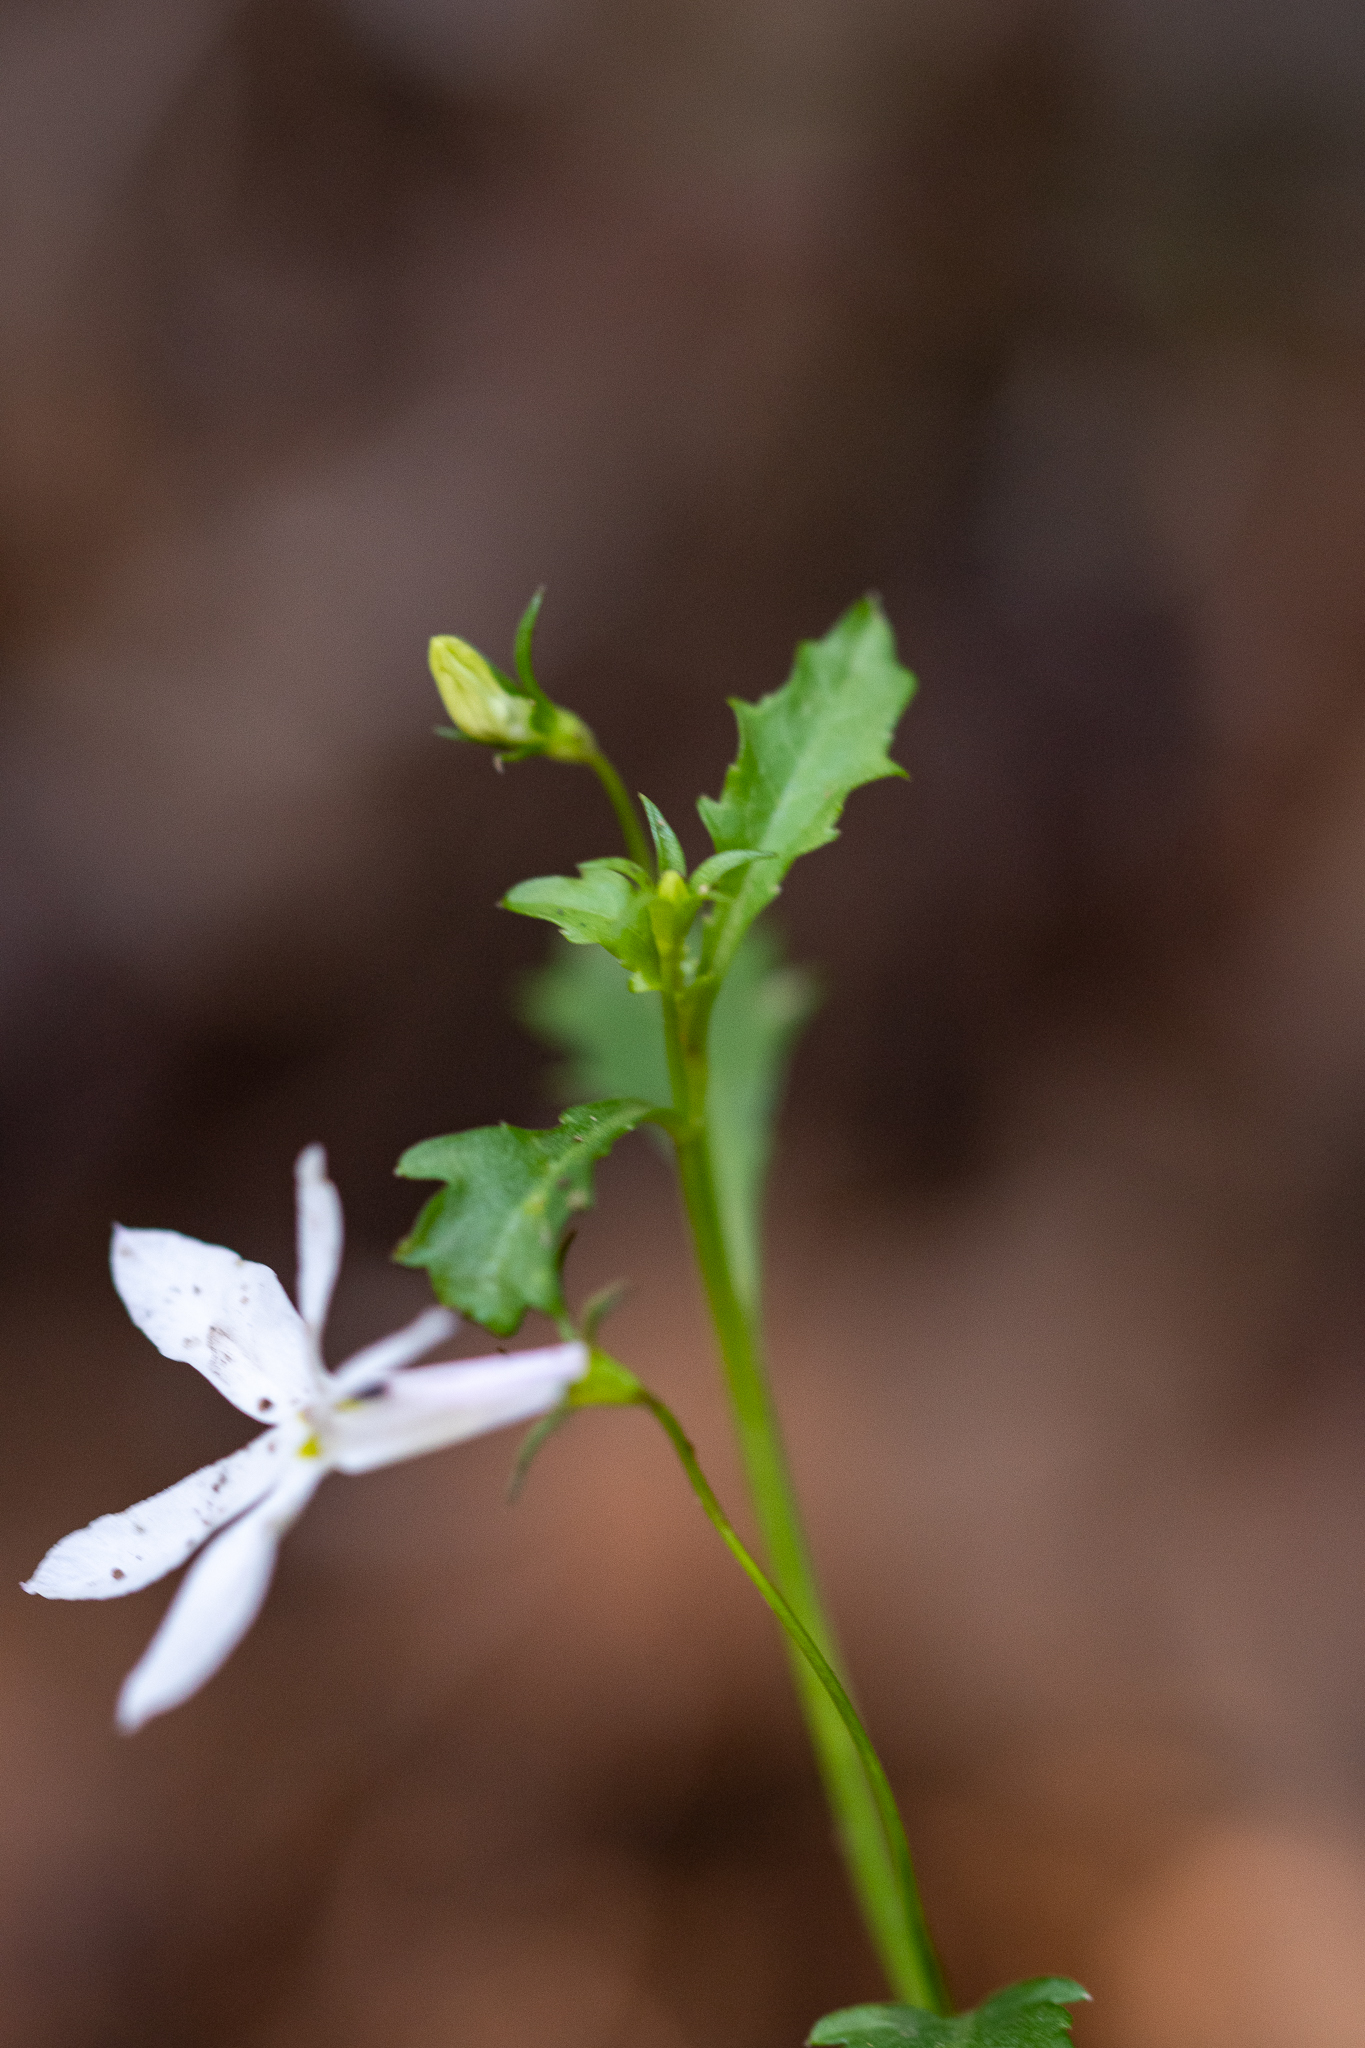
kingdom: Plantae
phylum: Tracheophyta
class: Magnoliopsida
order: Asterales
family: Campanulaceae
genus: Lobelia
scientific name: Lobelia pubescens
